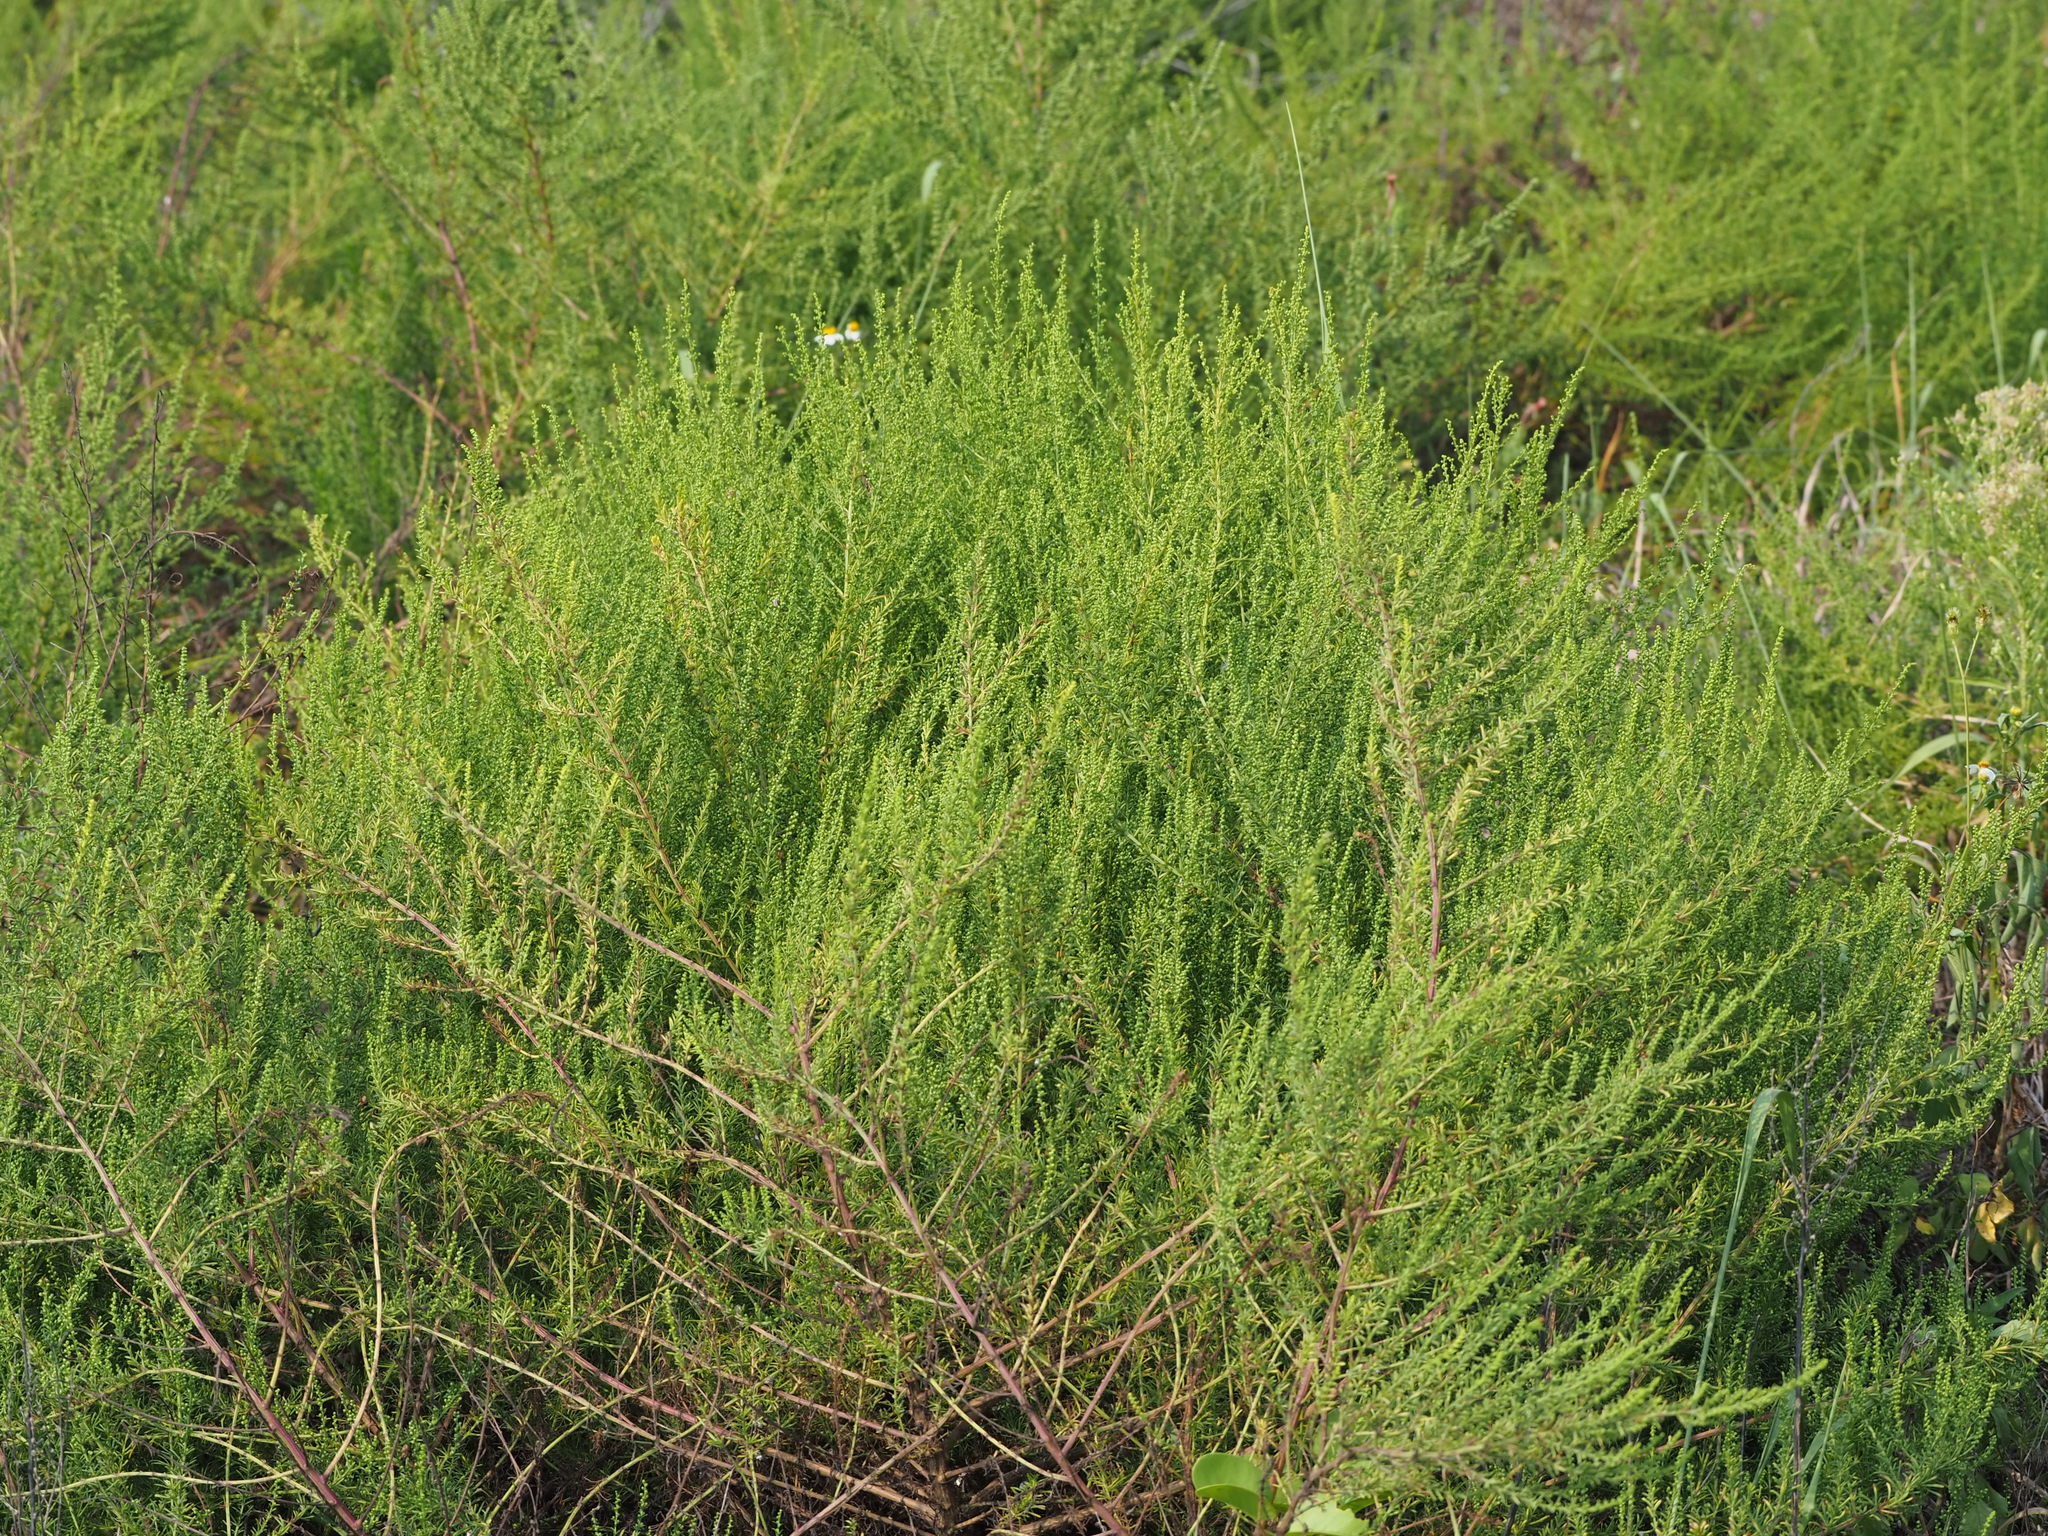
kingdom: Plantae
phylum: Tracheophyta
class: Magnoliopsida
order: Asterales
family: Asteraceae
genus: Artemisia
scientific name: Artemisia capillaris
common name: Yin-chen wormwood
